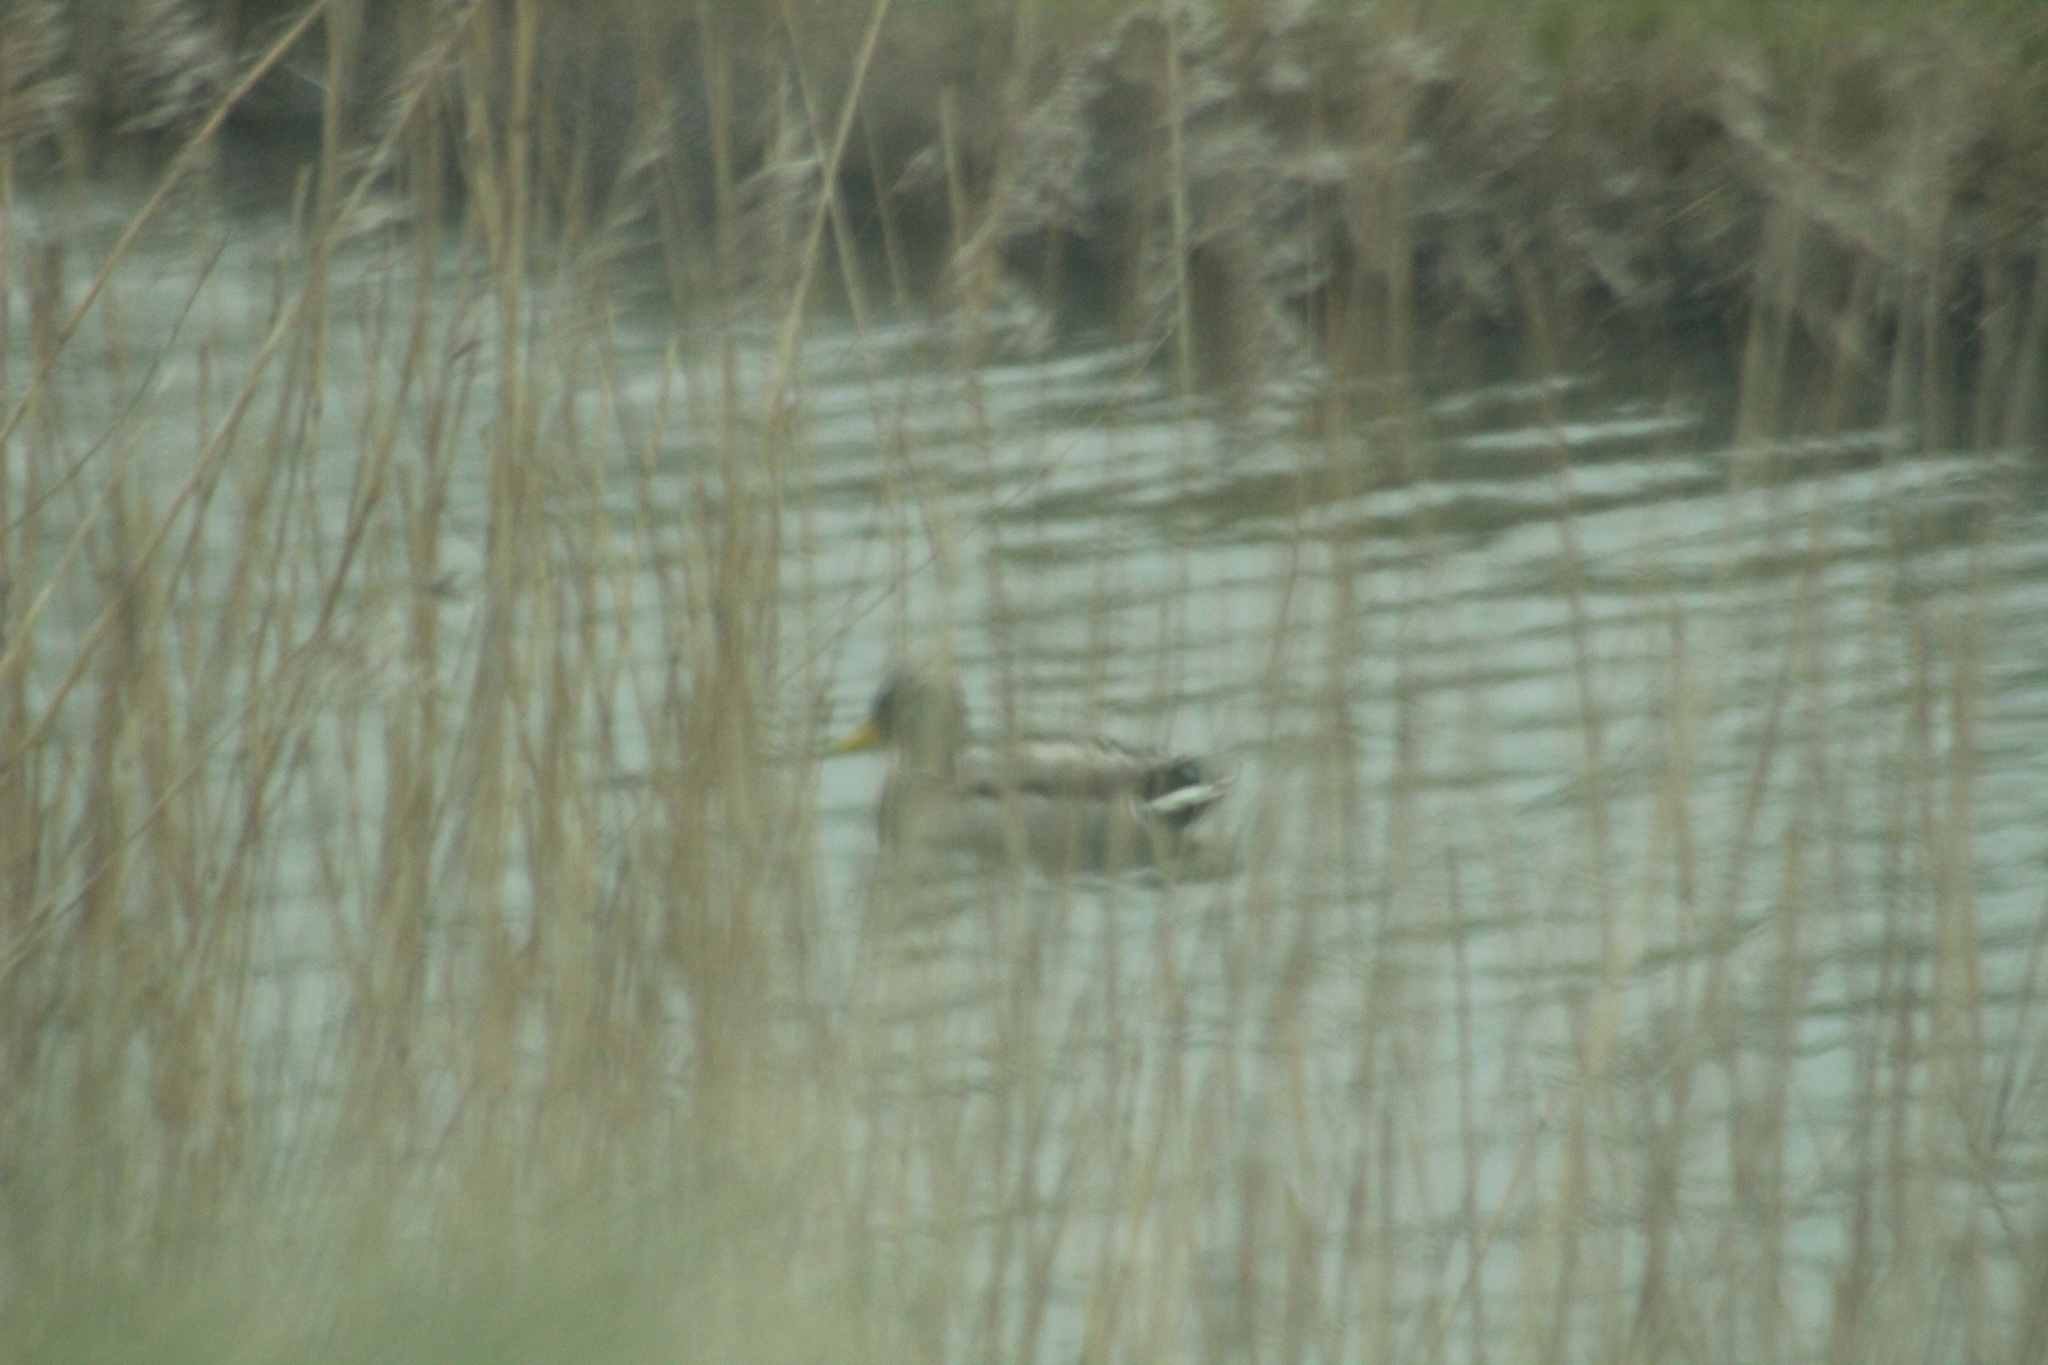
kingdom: Animalia
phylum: Chordata
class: Aves
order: Anseriformes
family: Anatidae
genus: Anas
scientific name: Anas platyrhynchos
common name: Mallard
